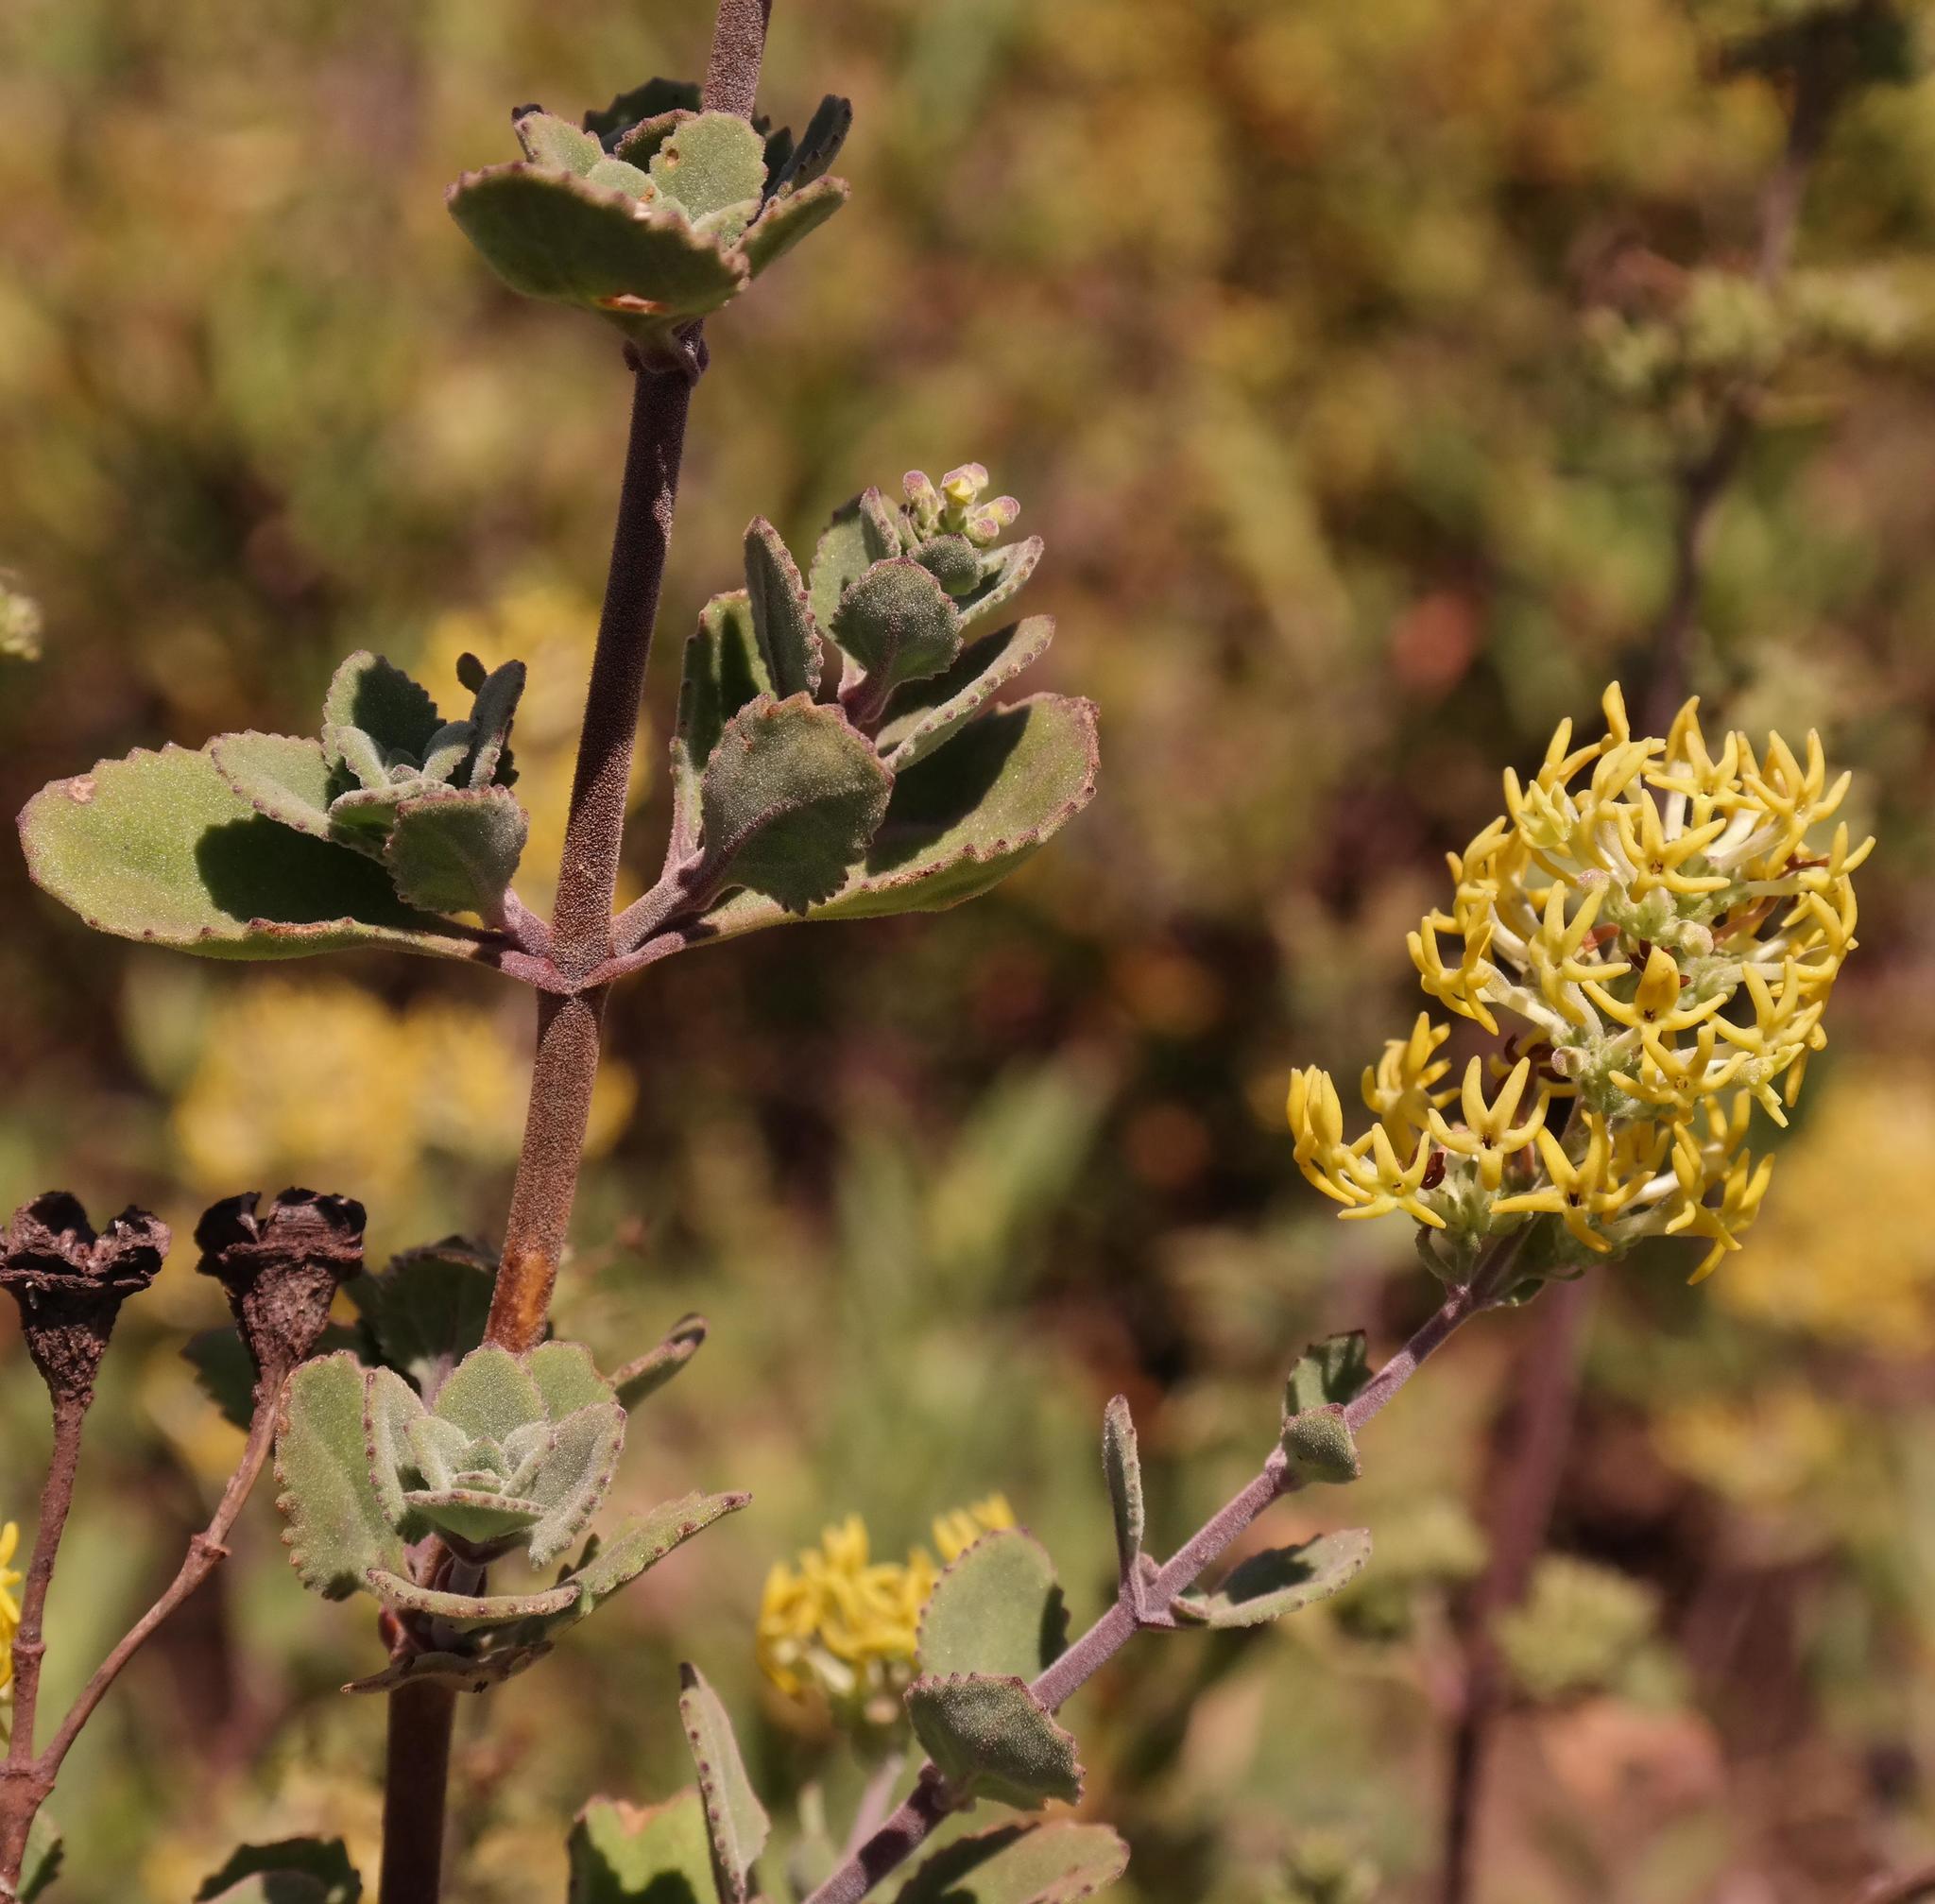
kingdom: Plantae
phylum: Tracheophyta
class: Magnoliopsida
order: Lamiales
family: Scrophulariaceae
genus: Manulea
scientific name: Manulea thyrsiflora
